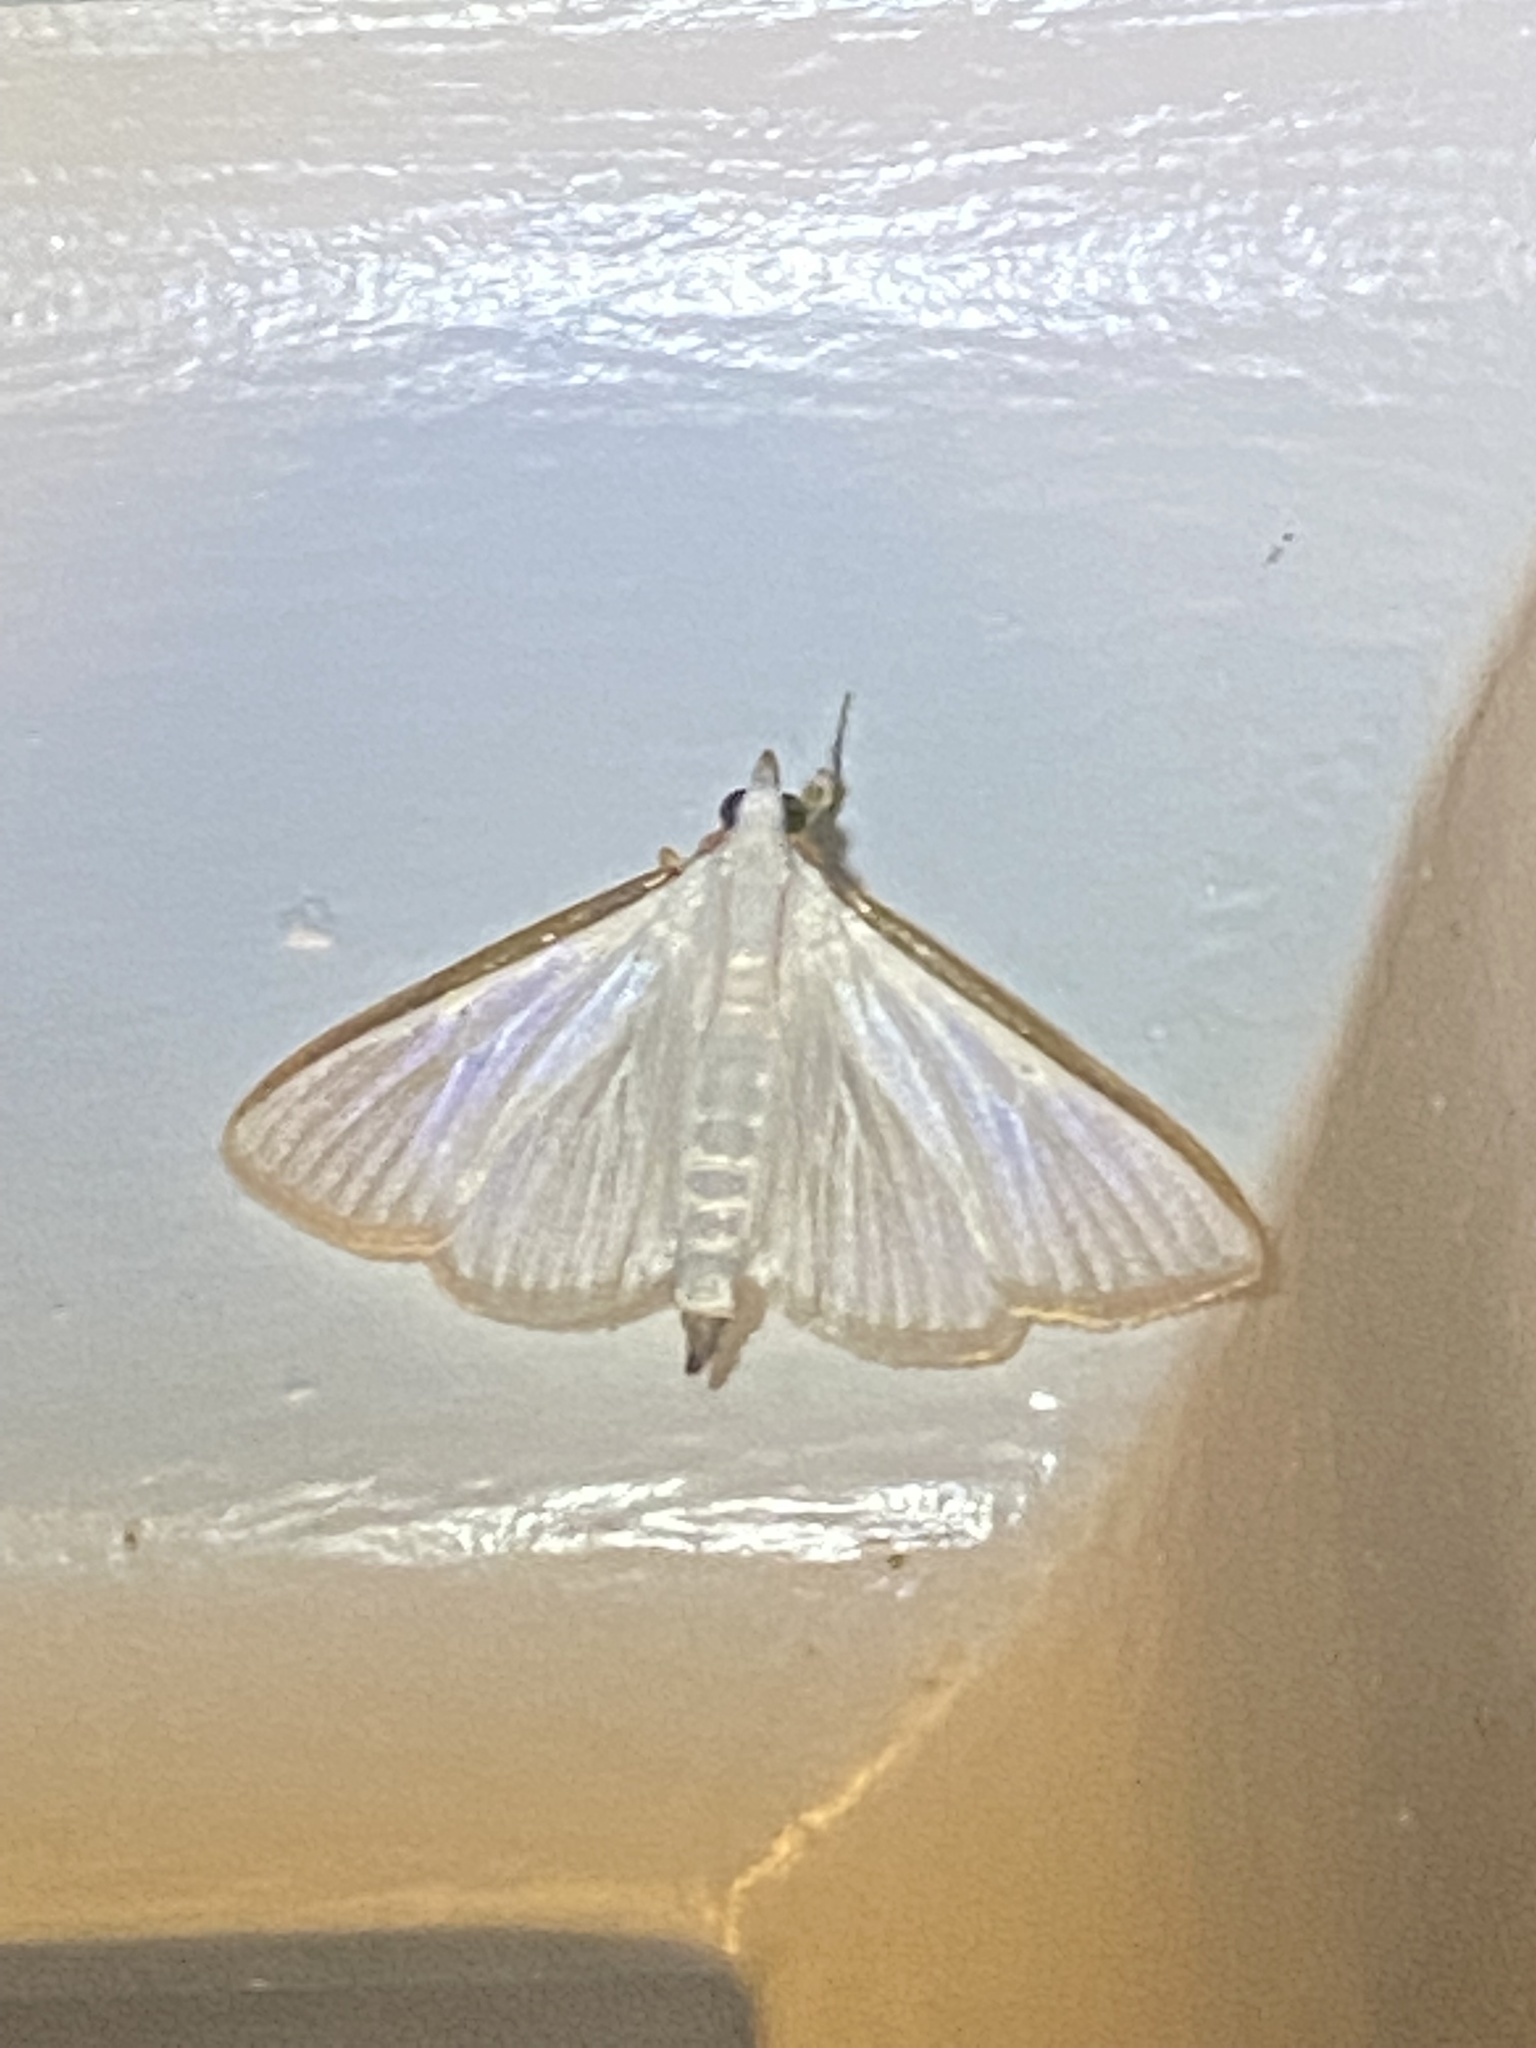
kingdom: Animalia
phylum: Arthropoda
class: Insecta
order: Lepidoptera
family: Crambidae
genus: Diaphania
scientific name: Diaphania costata
